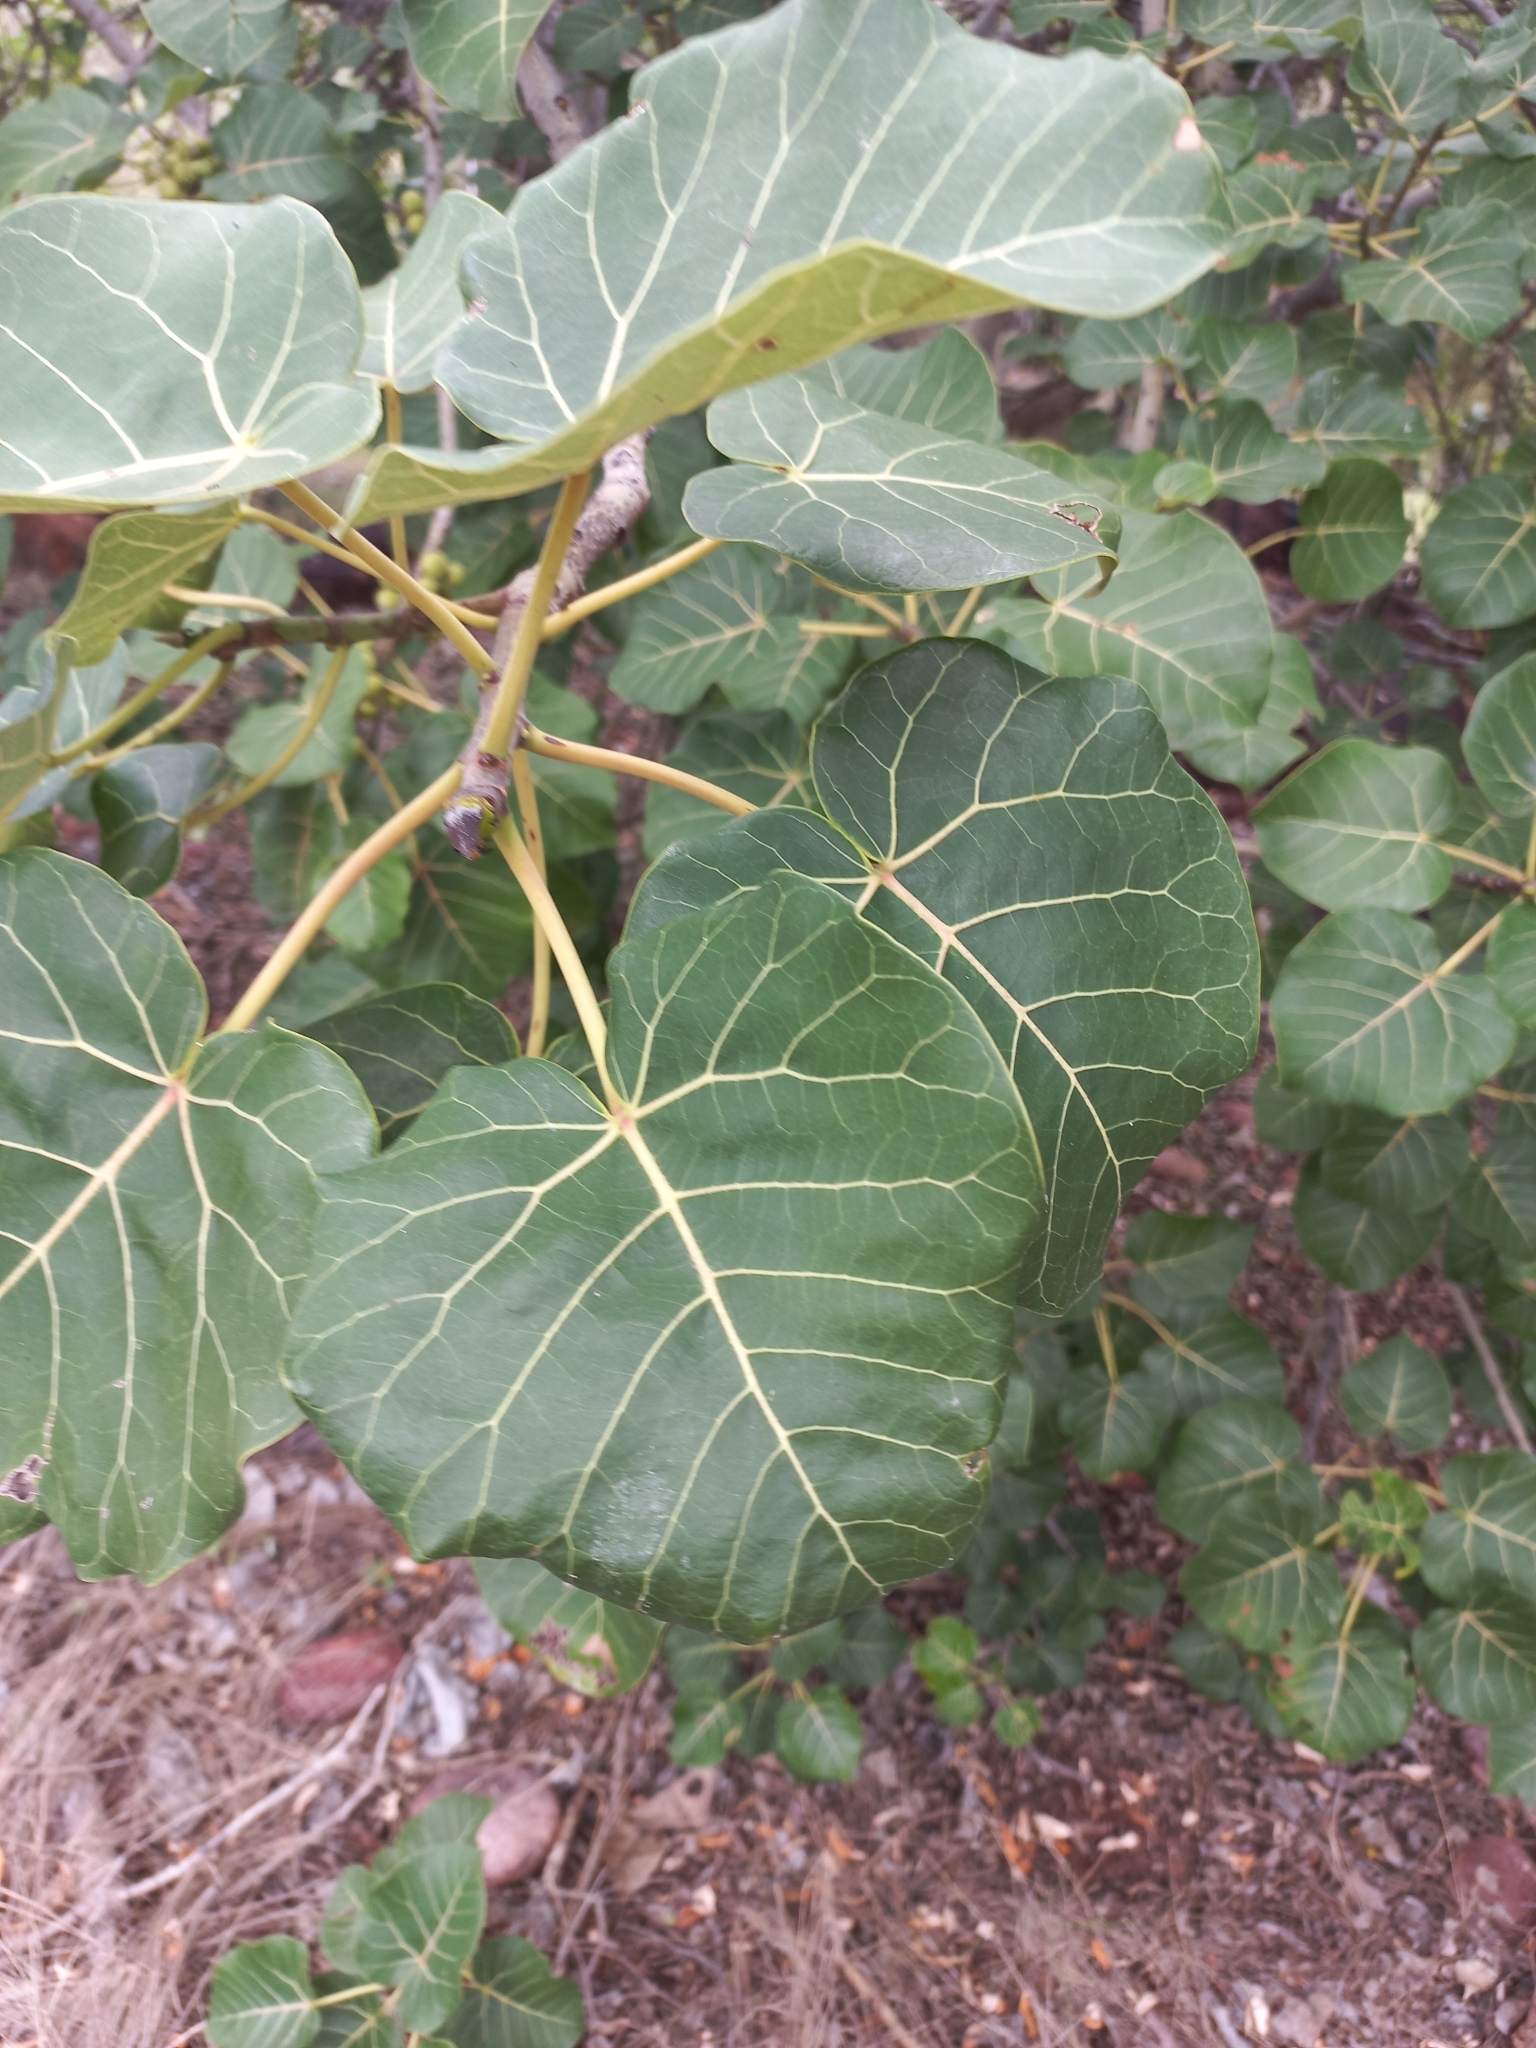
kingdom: Plantae
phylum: Tracheophyta
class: Magnoliopsida
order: Rosales
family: Moraceae
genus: Ficus
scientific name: Ficus abutilifolia
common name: Large-leaved rock fig
